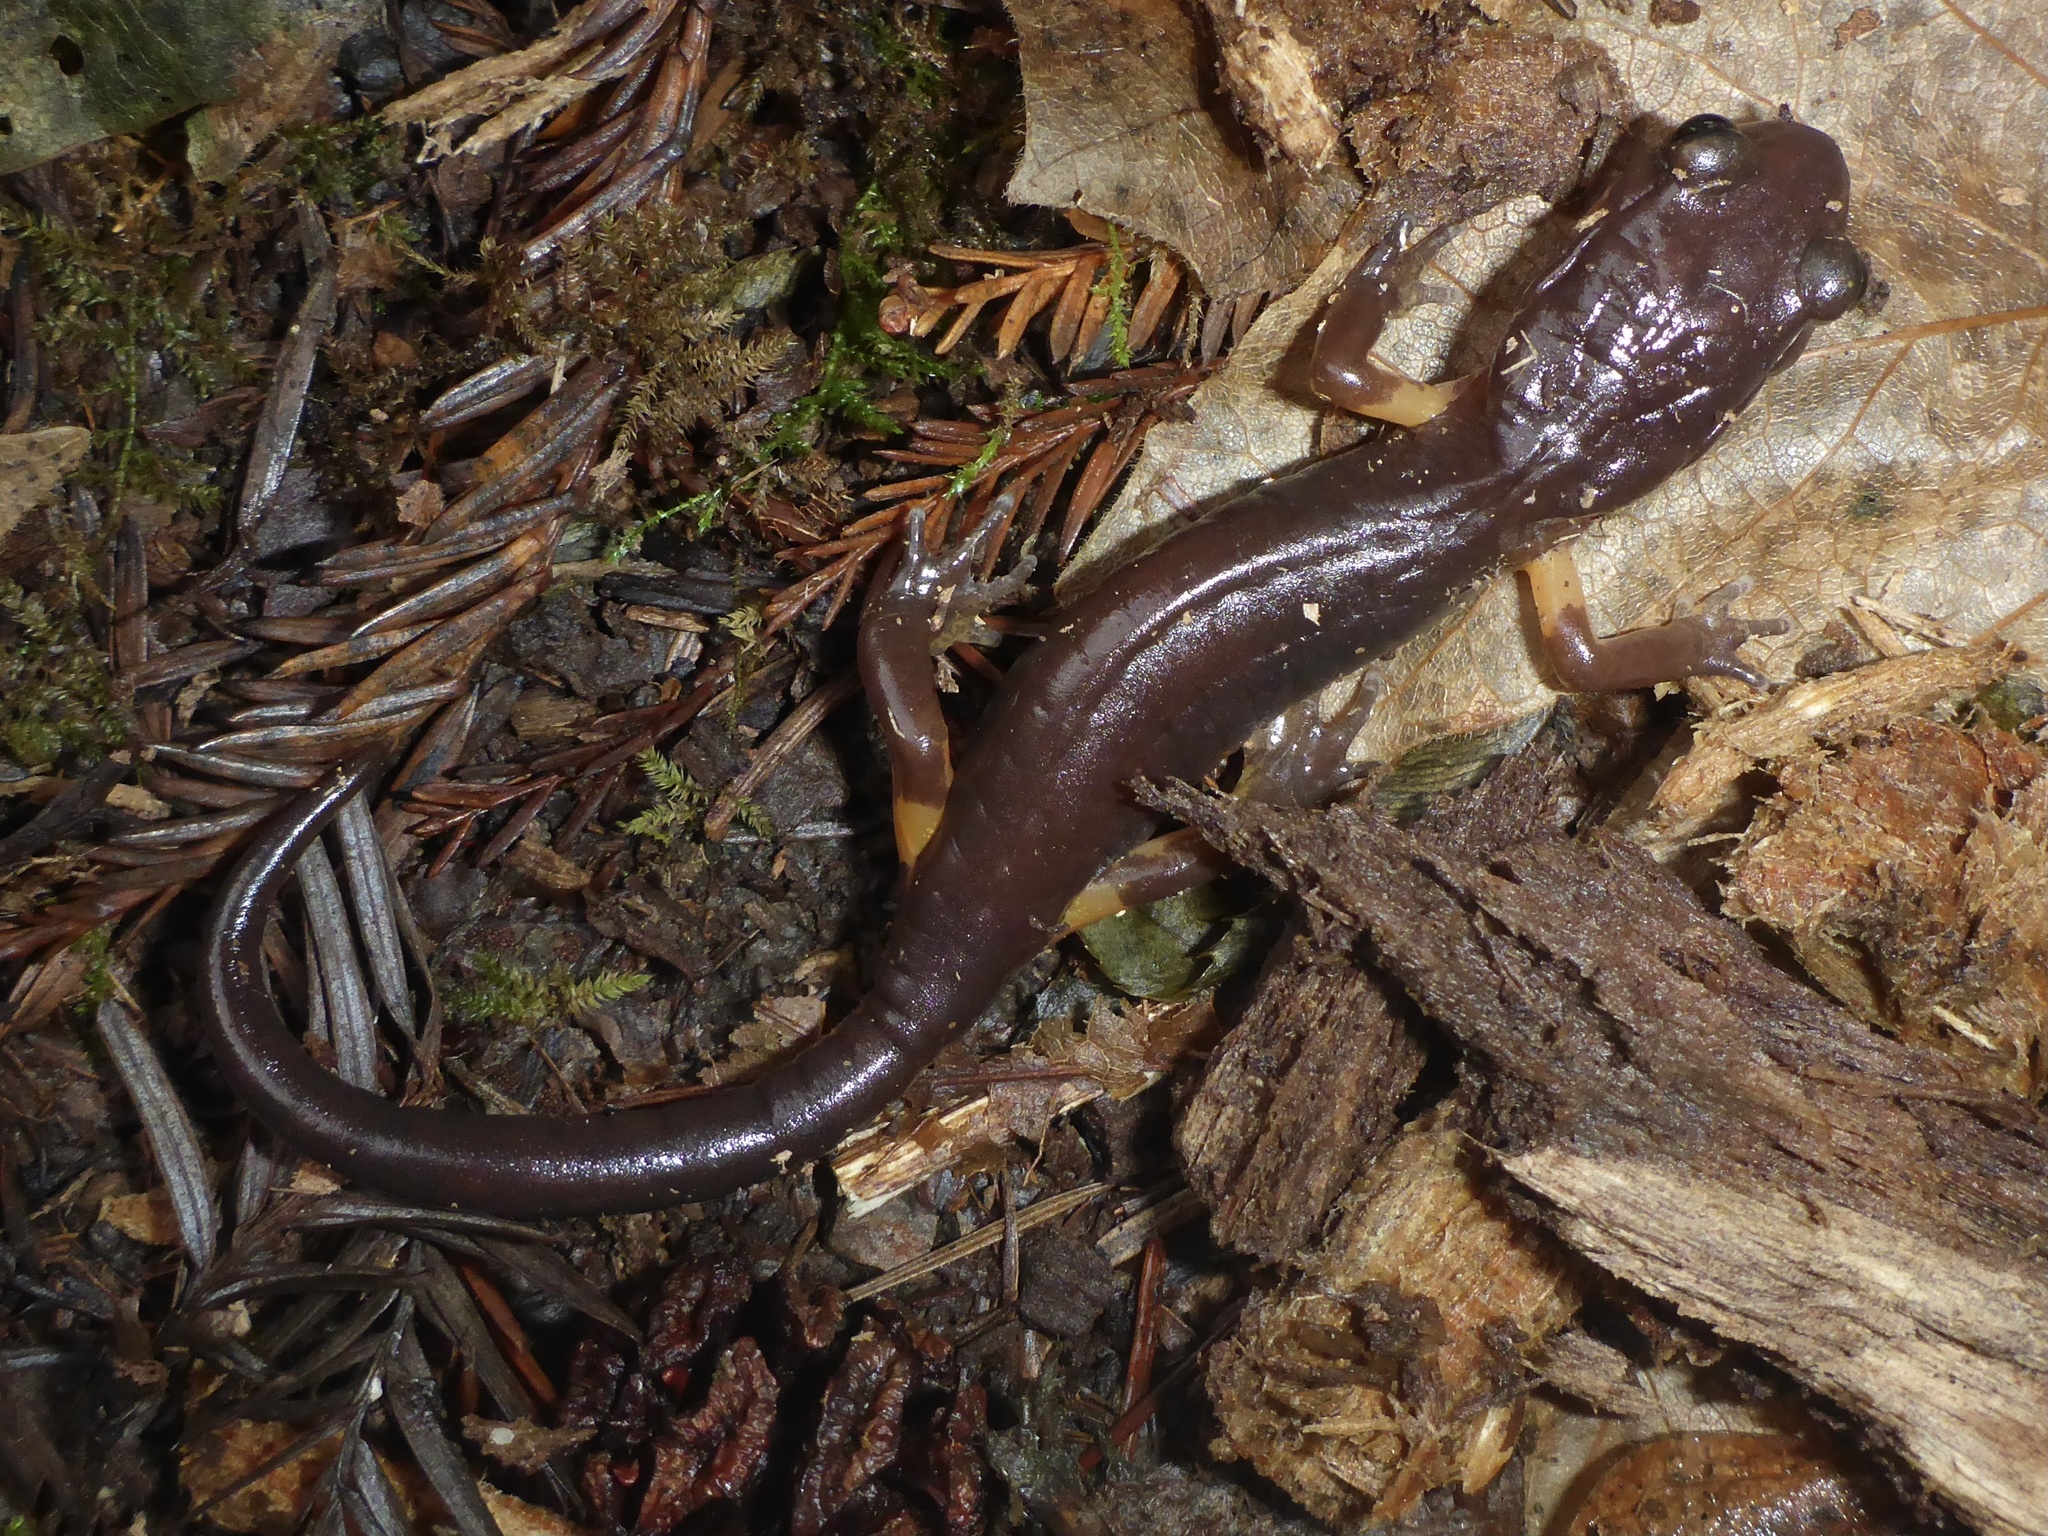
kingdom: Animalia
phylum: Chordata
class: Amphibia
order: Caudata
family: Plethodontidae
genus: Ensatina
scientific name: Ensatina eschscholtzii
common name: Ensatina
